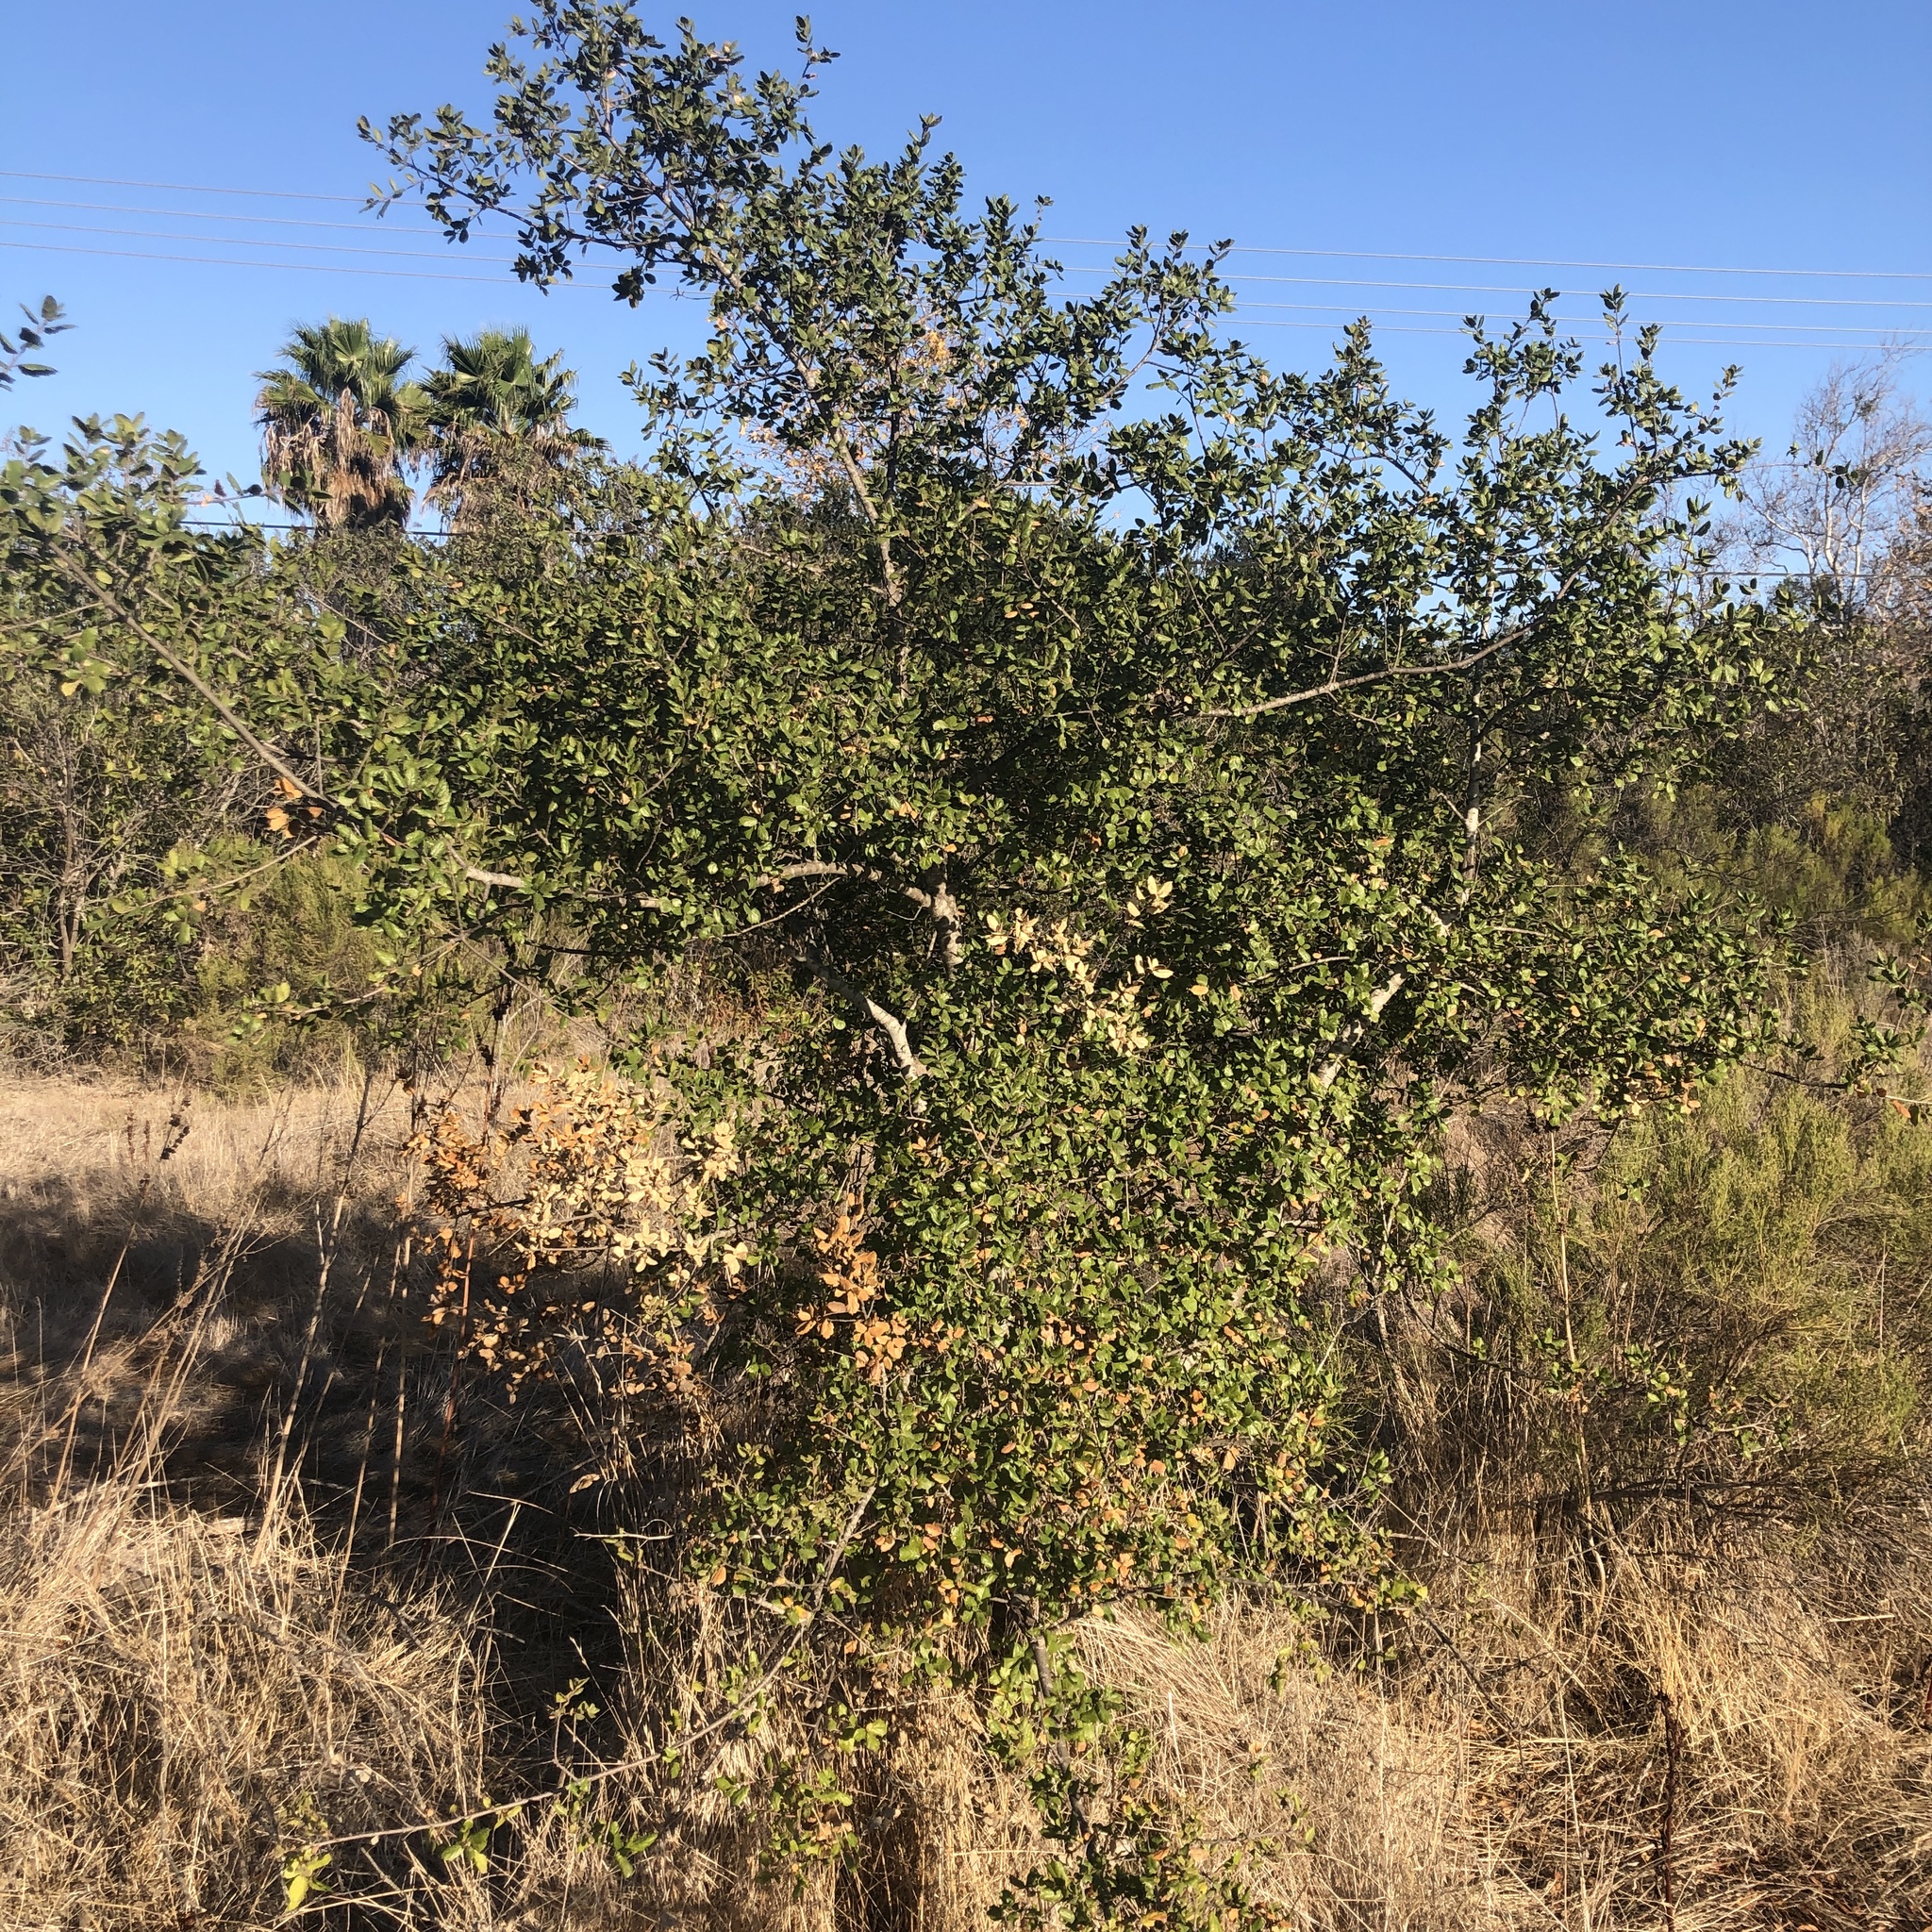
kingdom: Plantae
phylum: Tracheophyta
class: Magnoliopsida
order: Fagales
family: Fagaceae
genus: Quercus
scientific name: Quercus agrifolia
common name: California live oak
